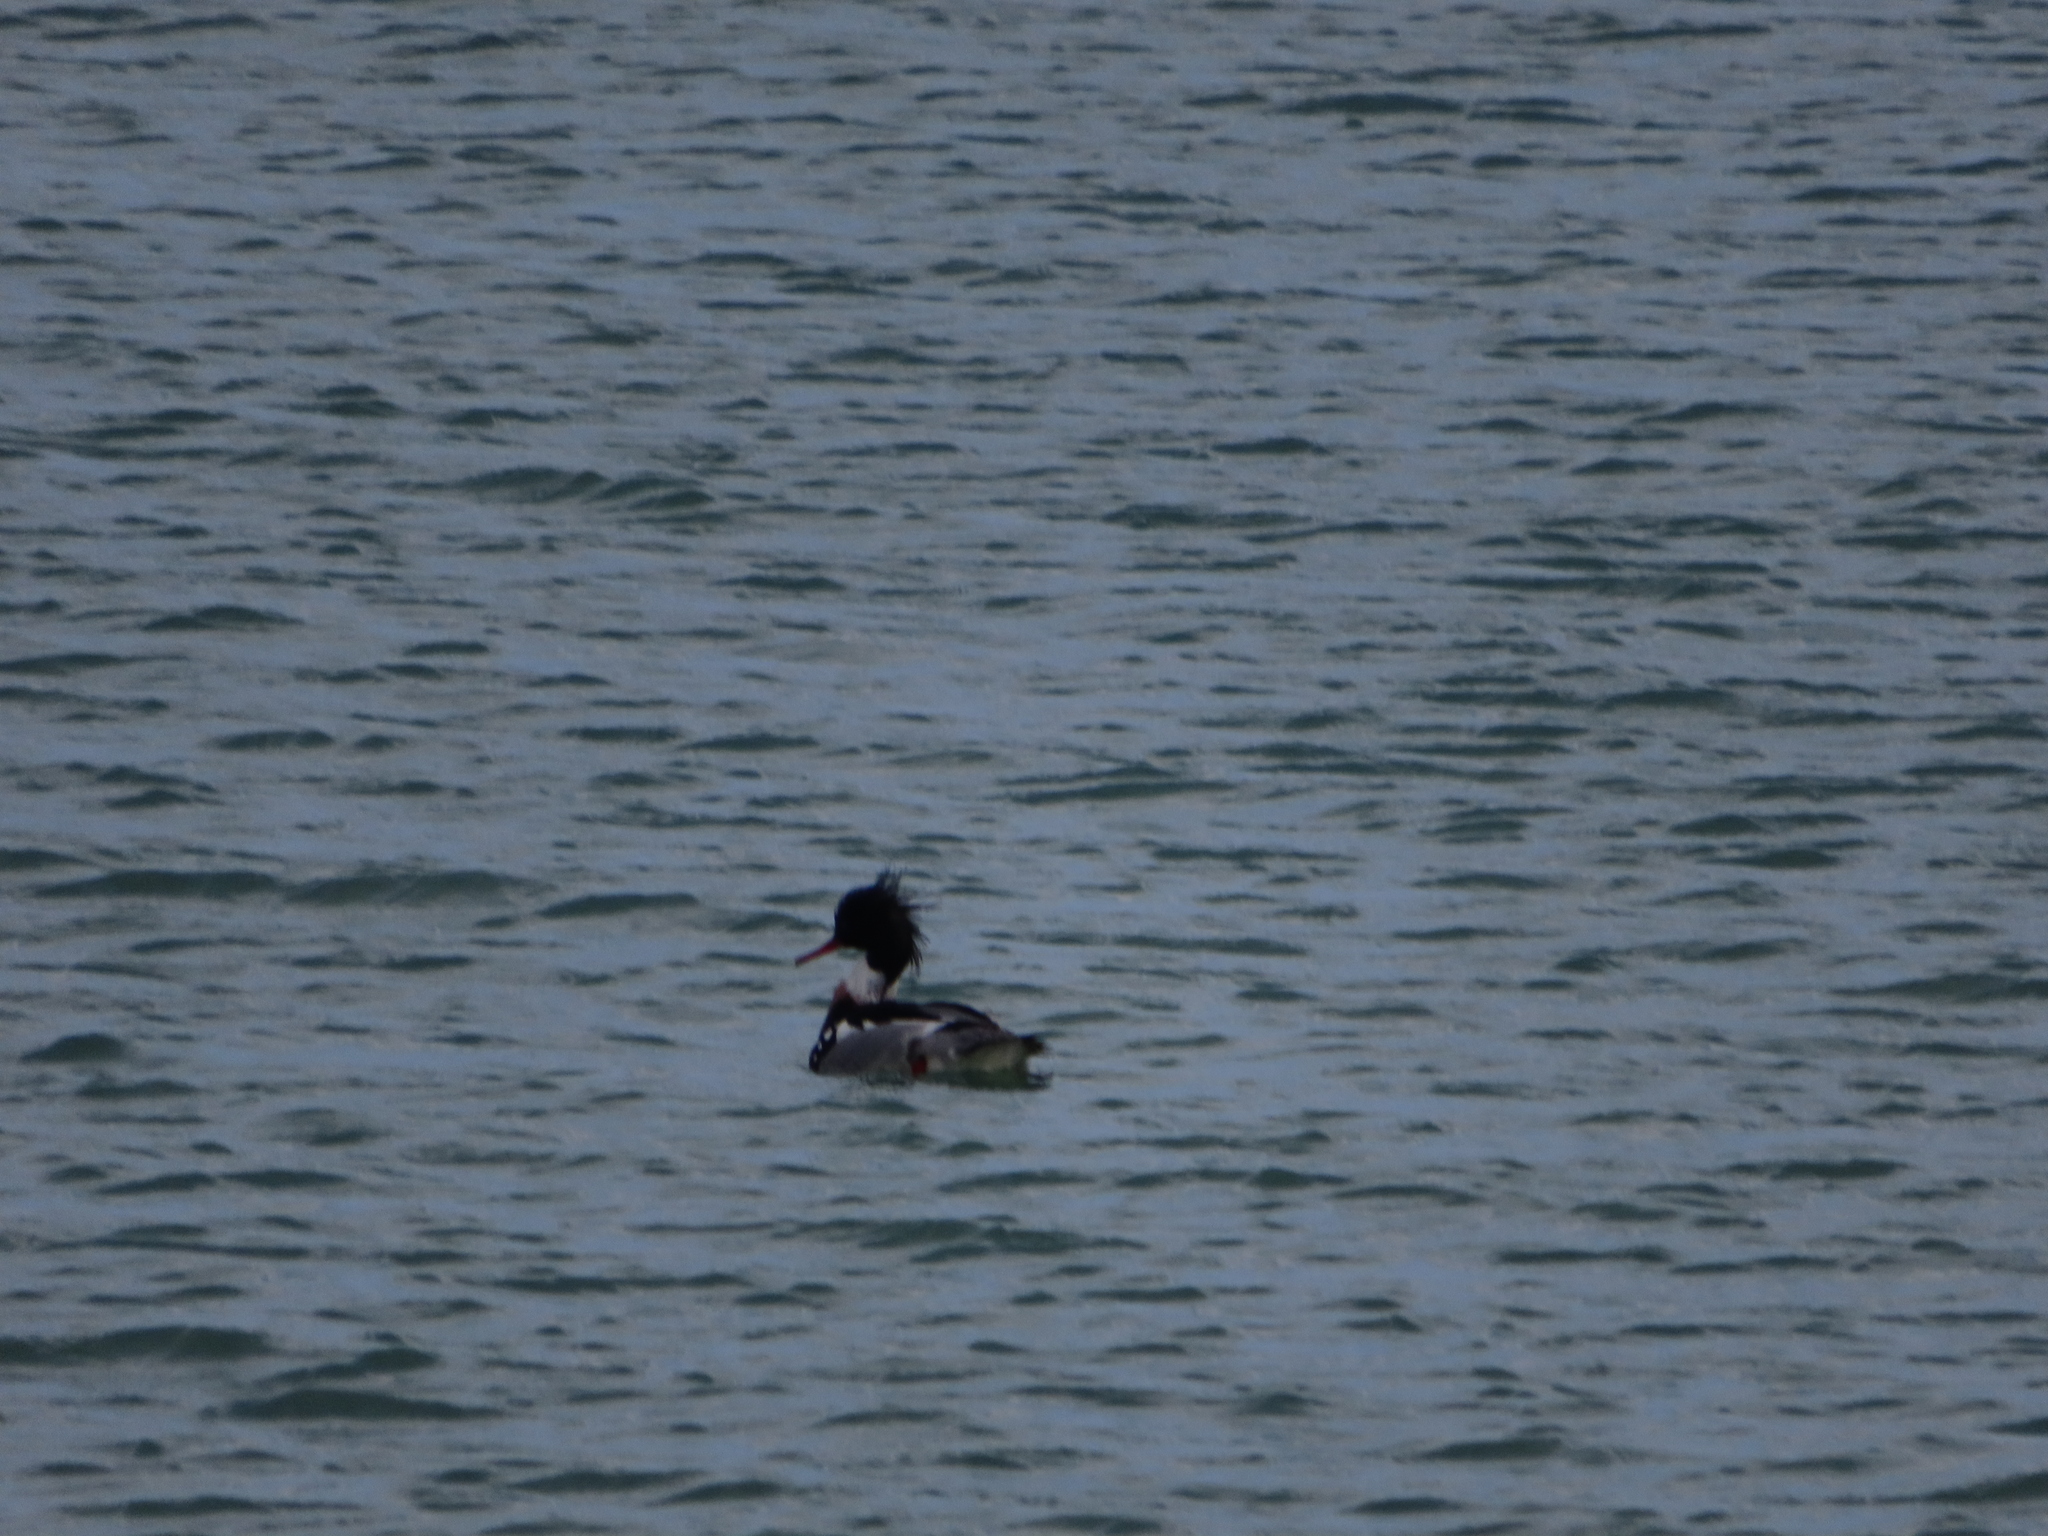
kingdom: Animalia
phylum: Chordata
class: Aves
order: Anseriformes
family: Anatidae
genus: Mergus
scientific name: Mergus serrator
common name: Red-breasted merganser
